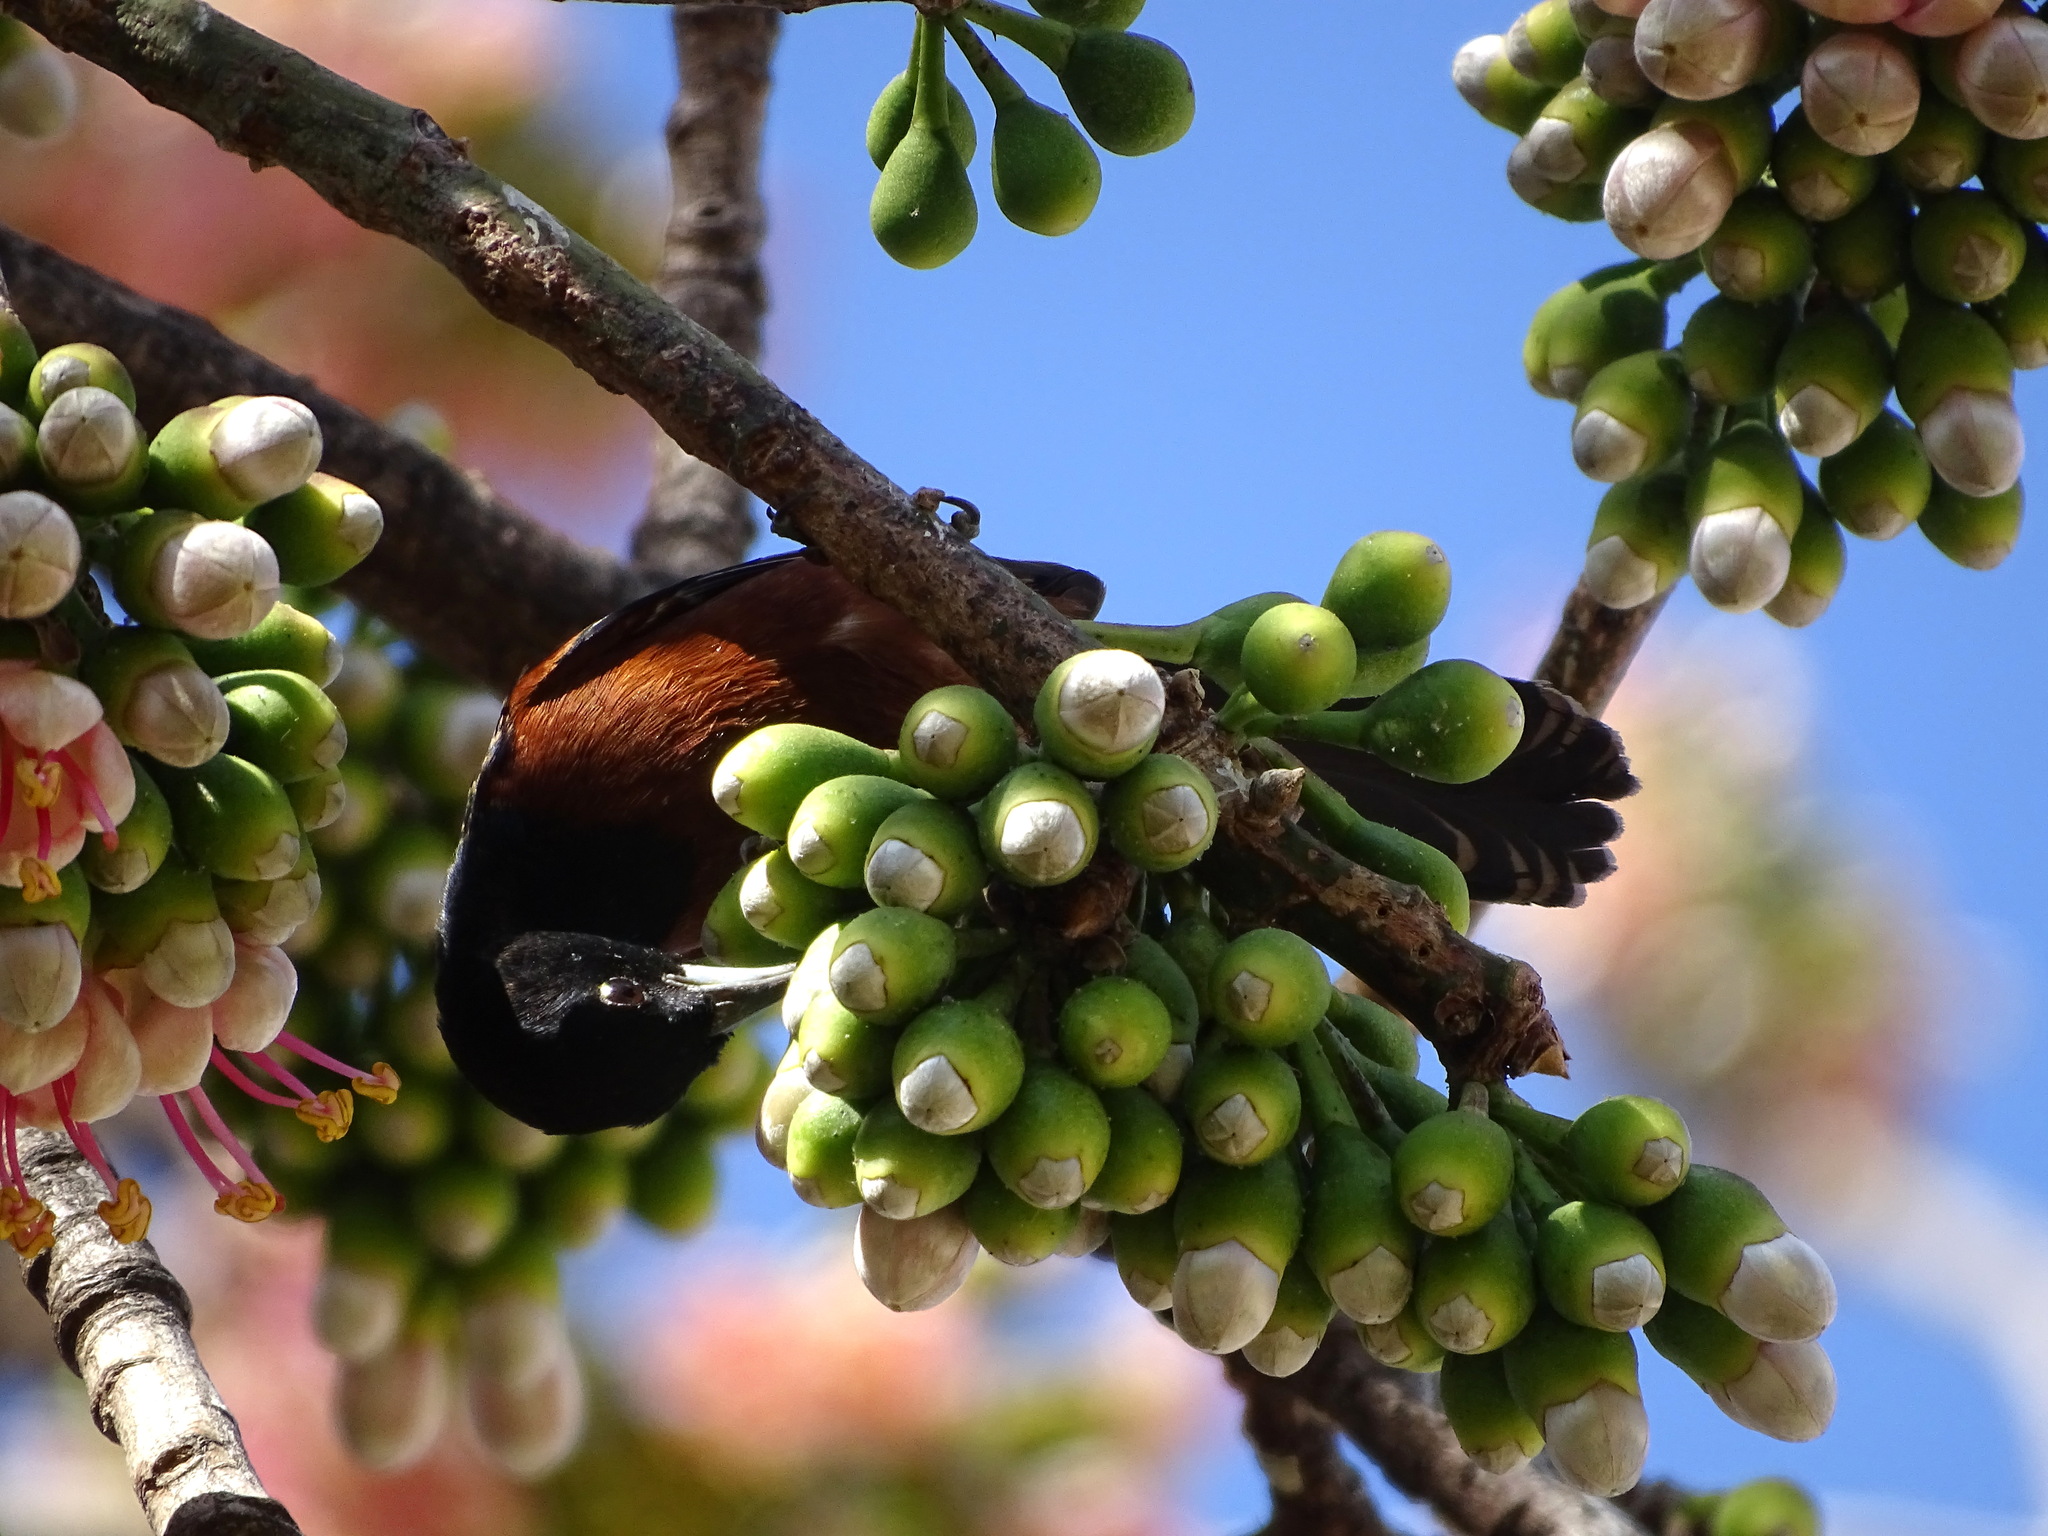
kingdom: Animalia
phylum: Chordata
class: Aves
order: Passeriformes
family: Icteridae
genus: Icterus
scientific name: Icterus spurius
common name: Orchard oriole
